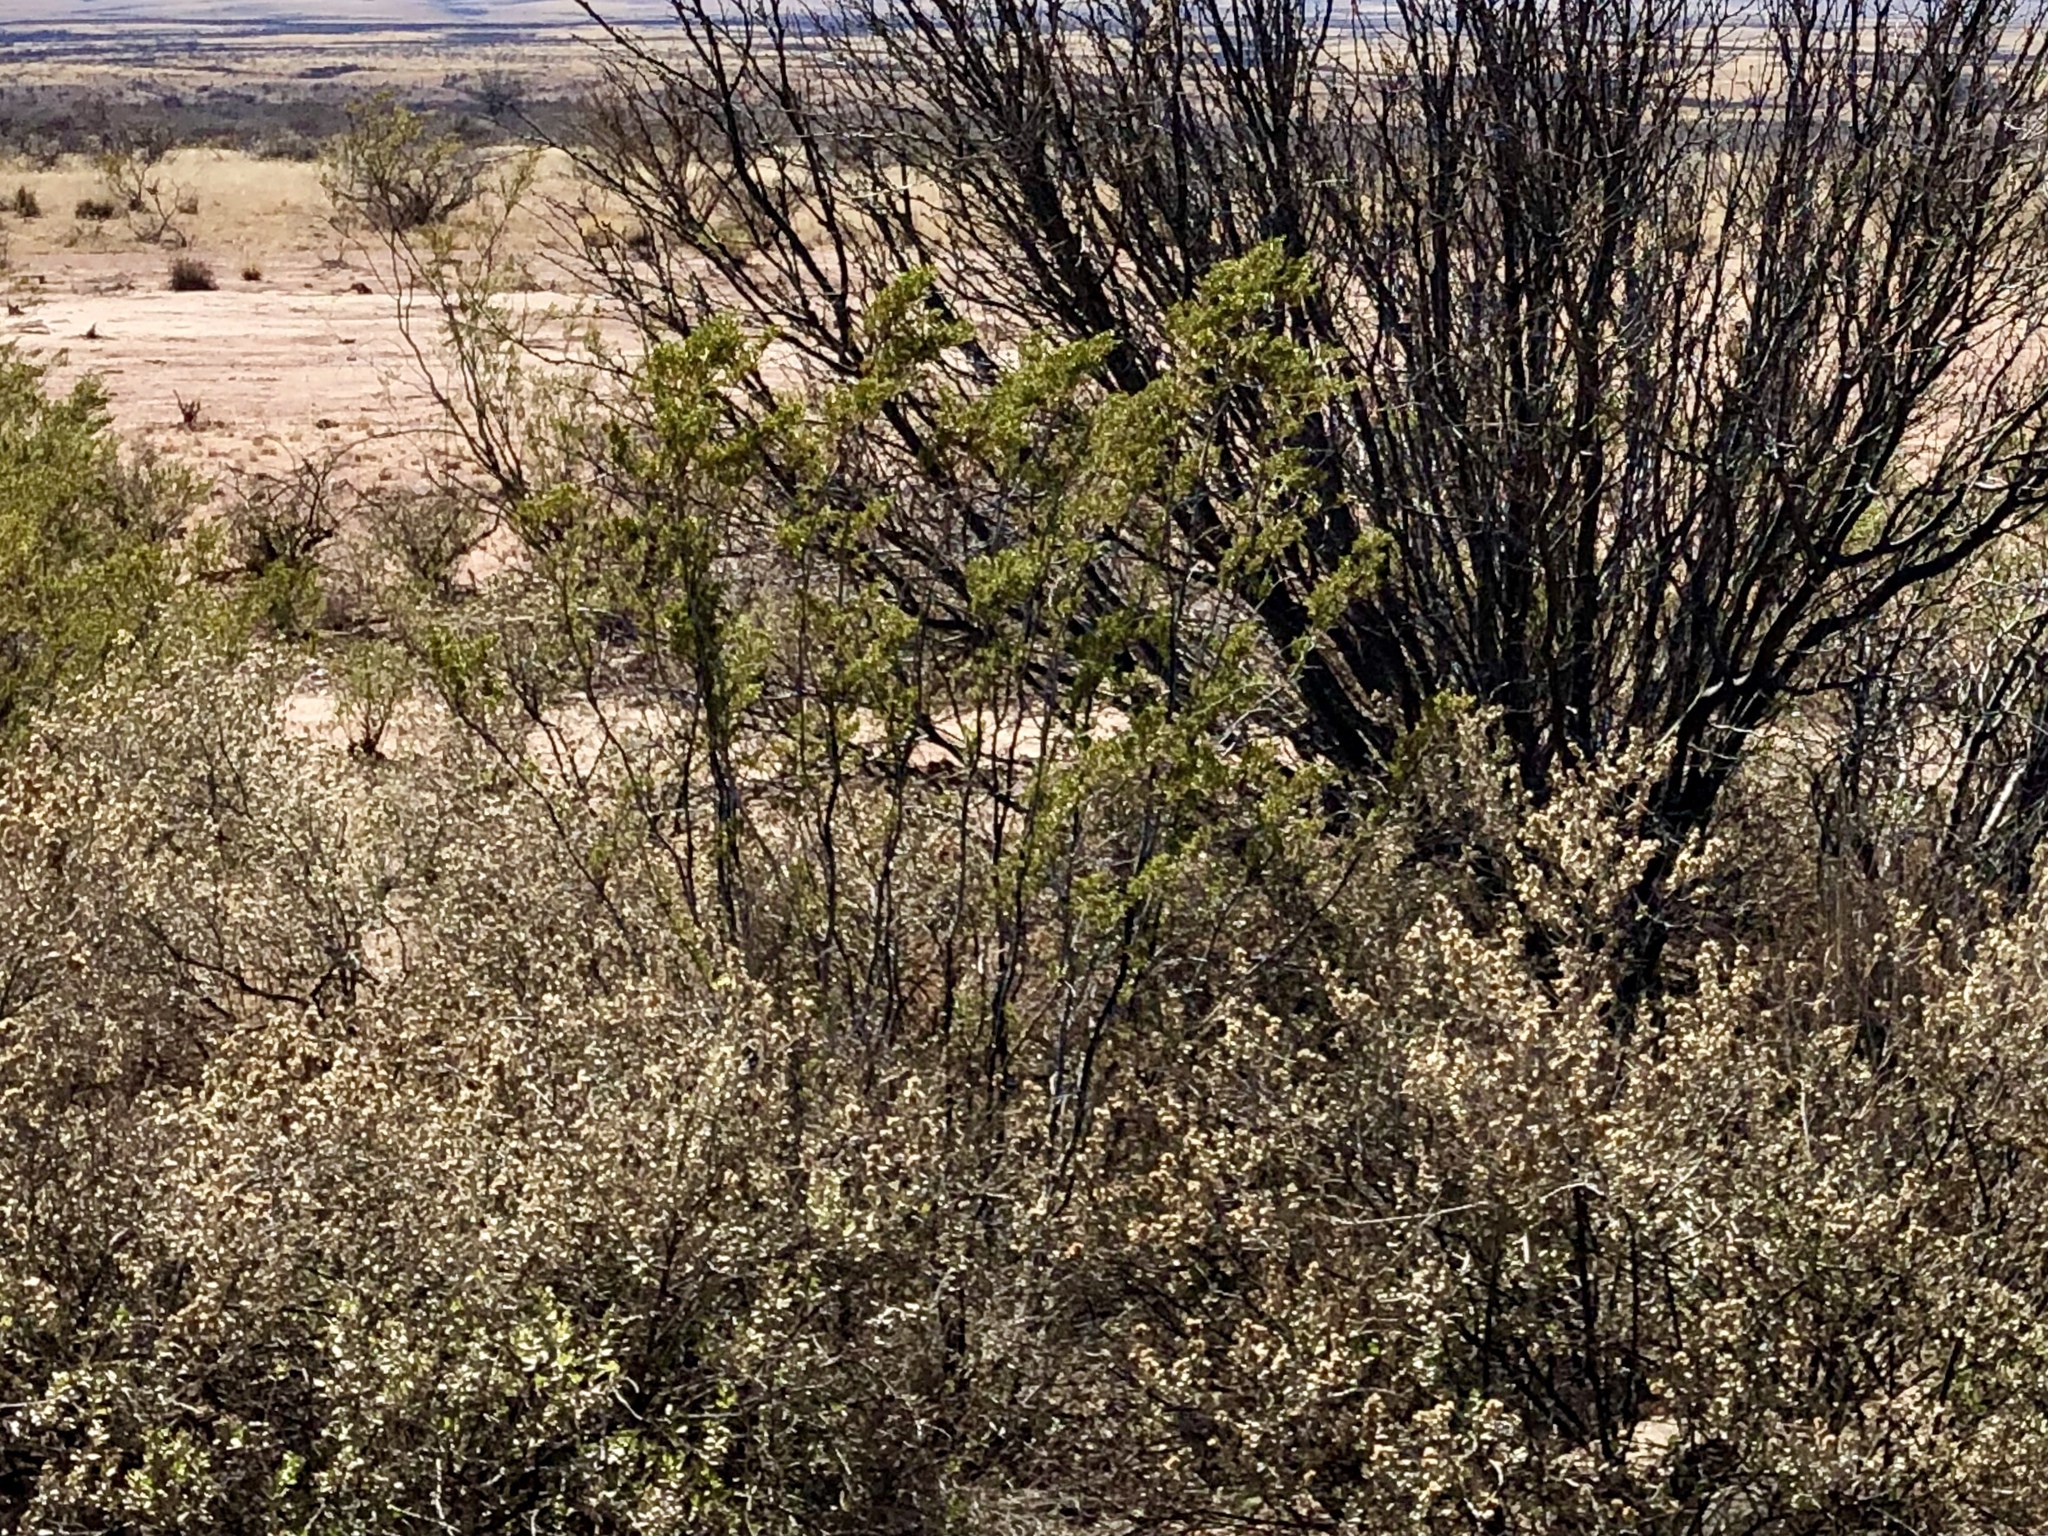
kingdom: Plantae
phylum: Tracheophyta
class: Magnoliopsida
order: Zygophyllales
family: Zygophyllaceae
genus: Larrea
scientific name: Larrea tridentata
